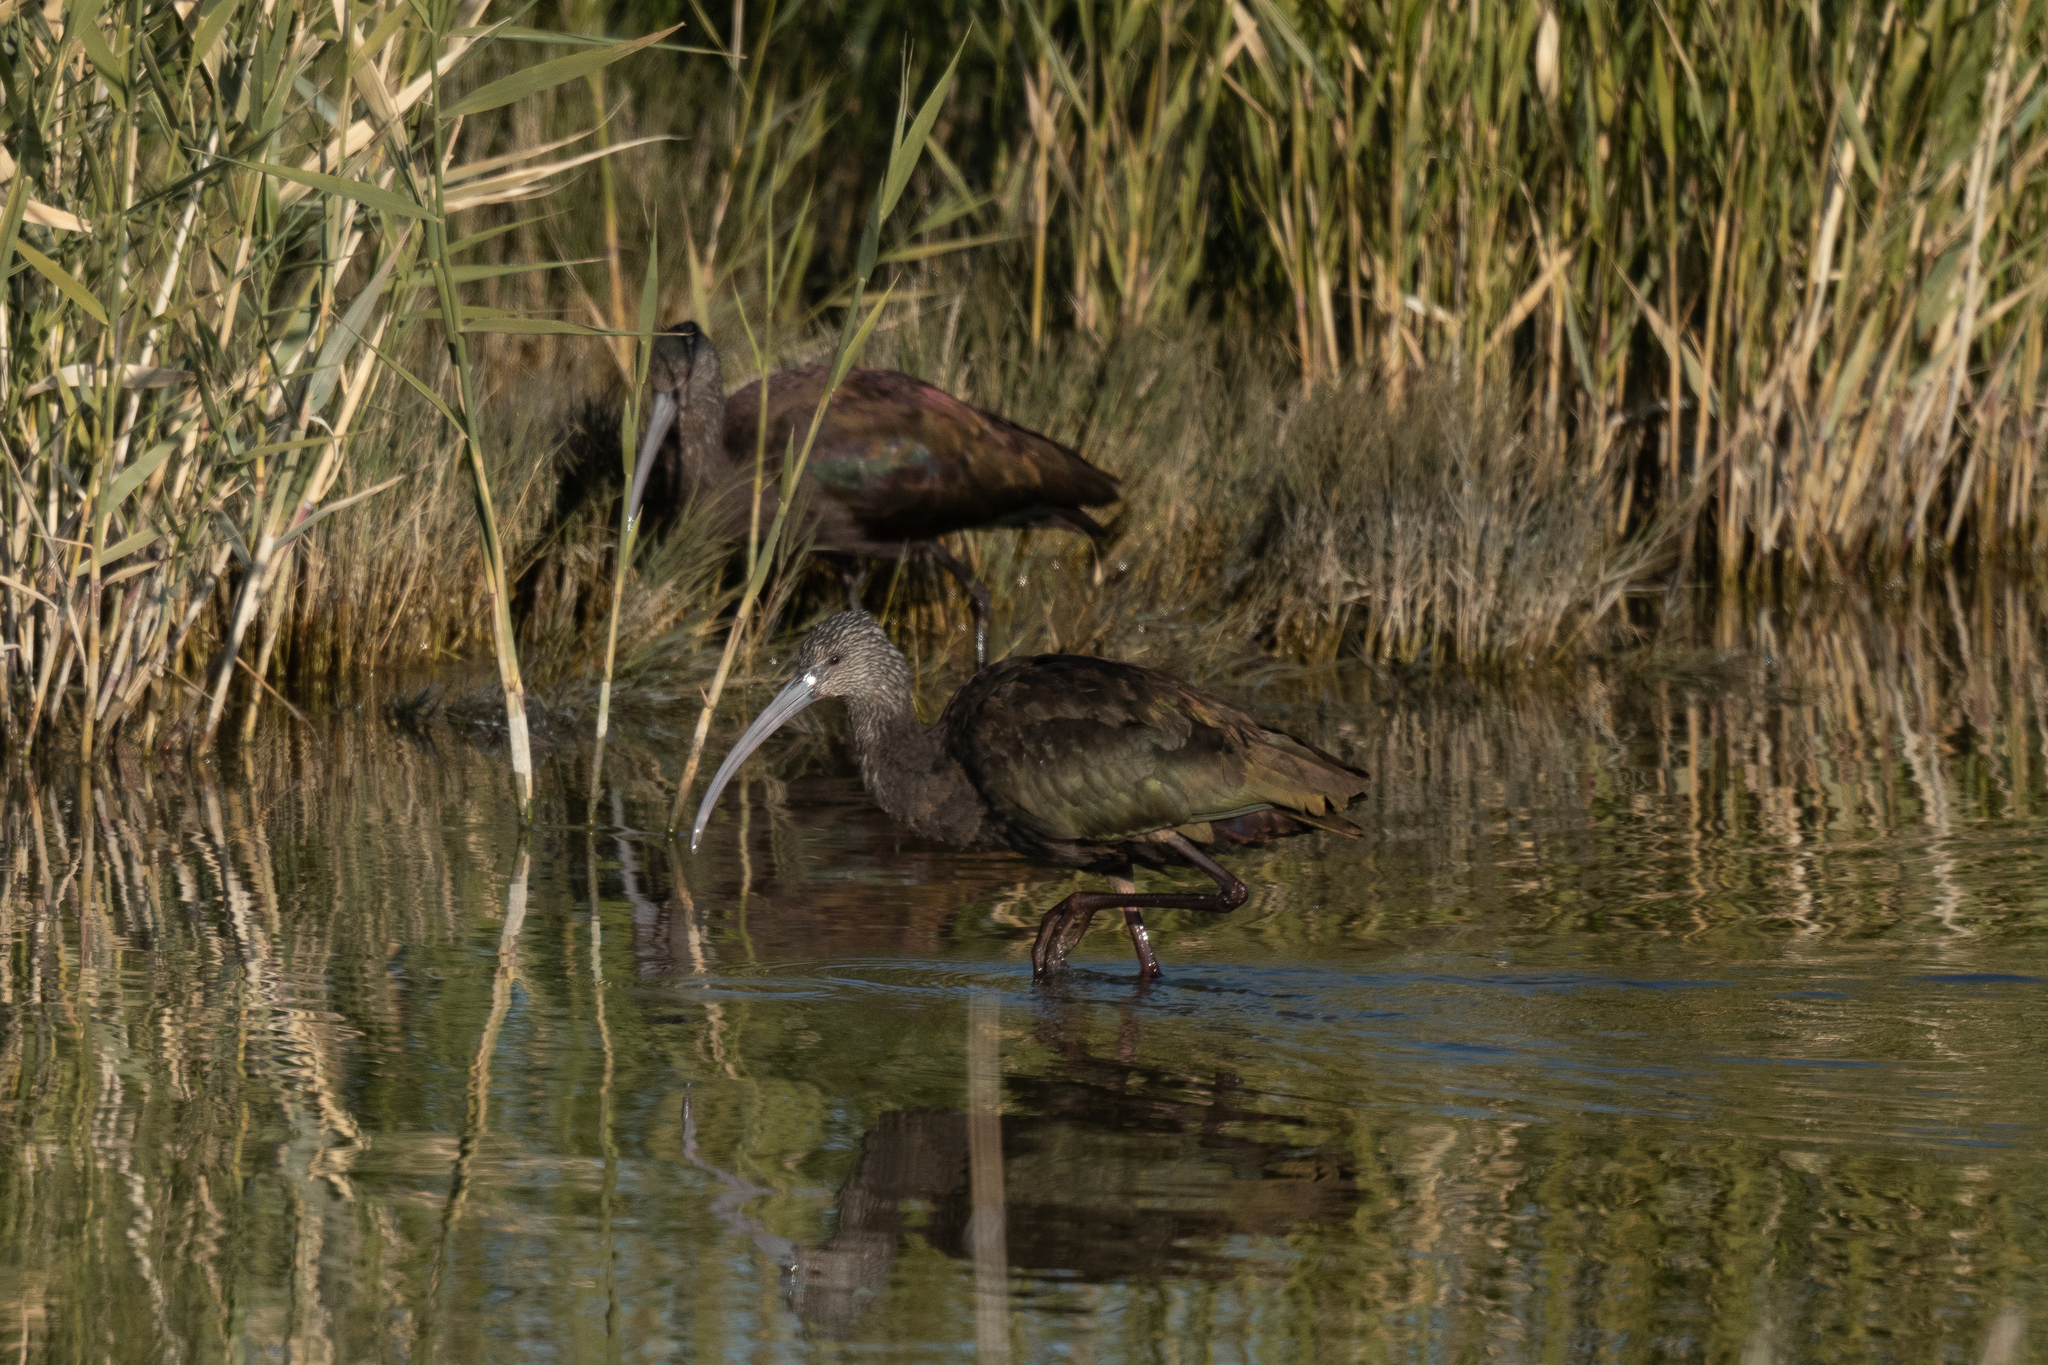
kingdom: Animalia
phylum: Chordata
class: Aves
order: Pelecaniformes
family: Threskiornithidae
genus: Plegadis
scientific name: Plegadis chihi
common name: White-faced ibis
